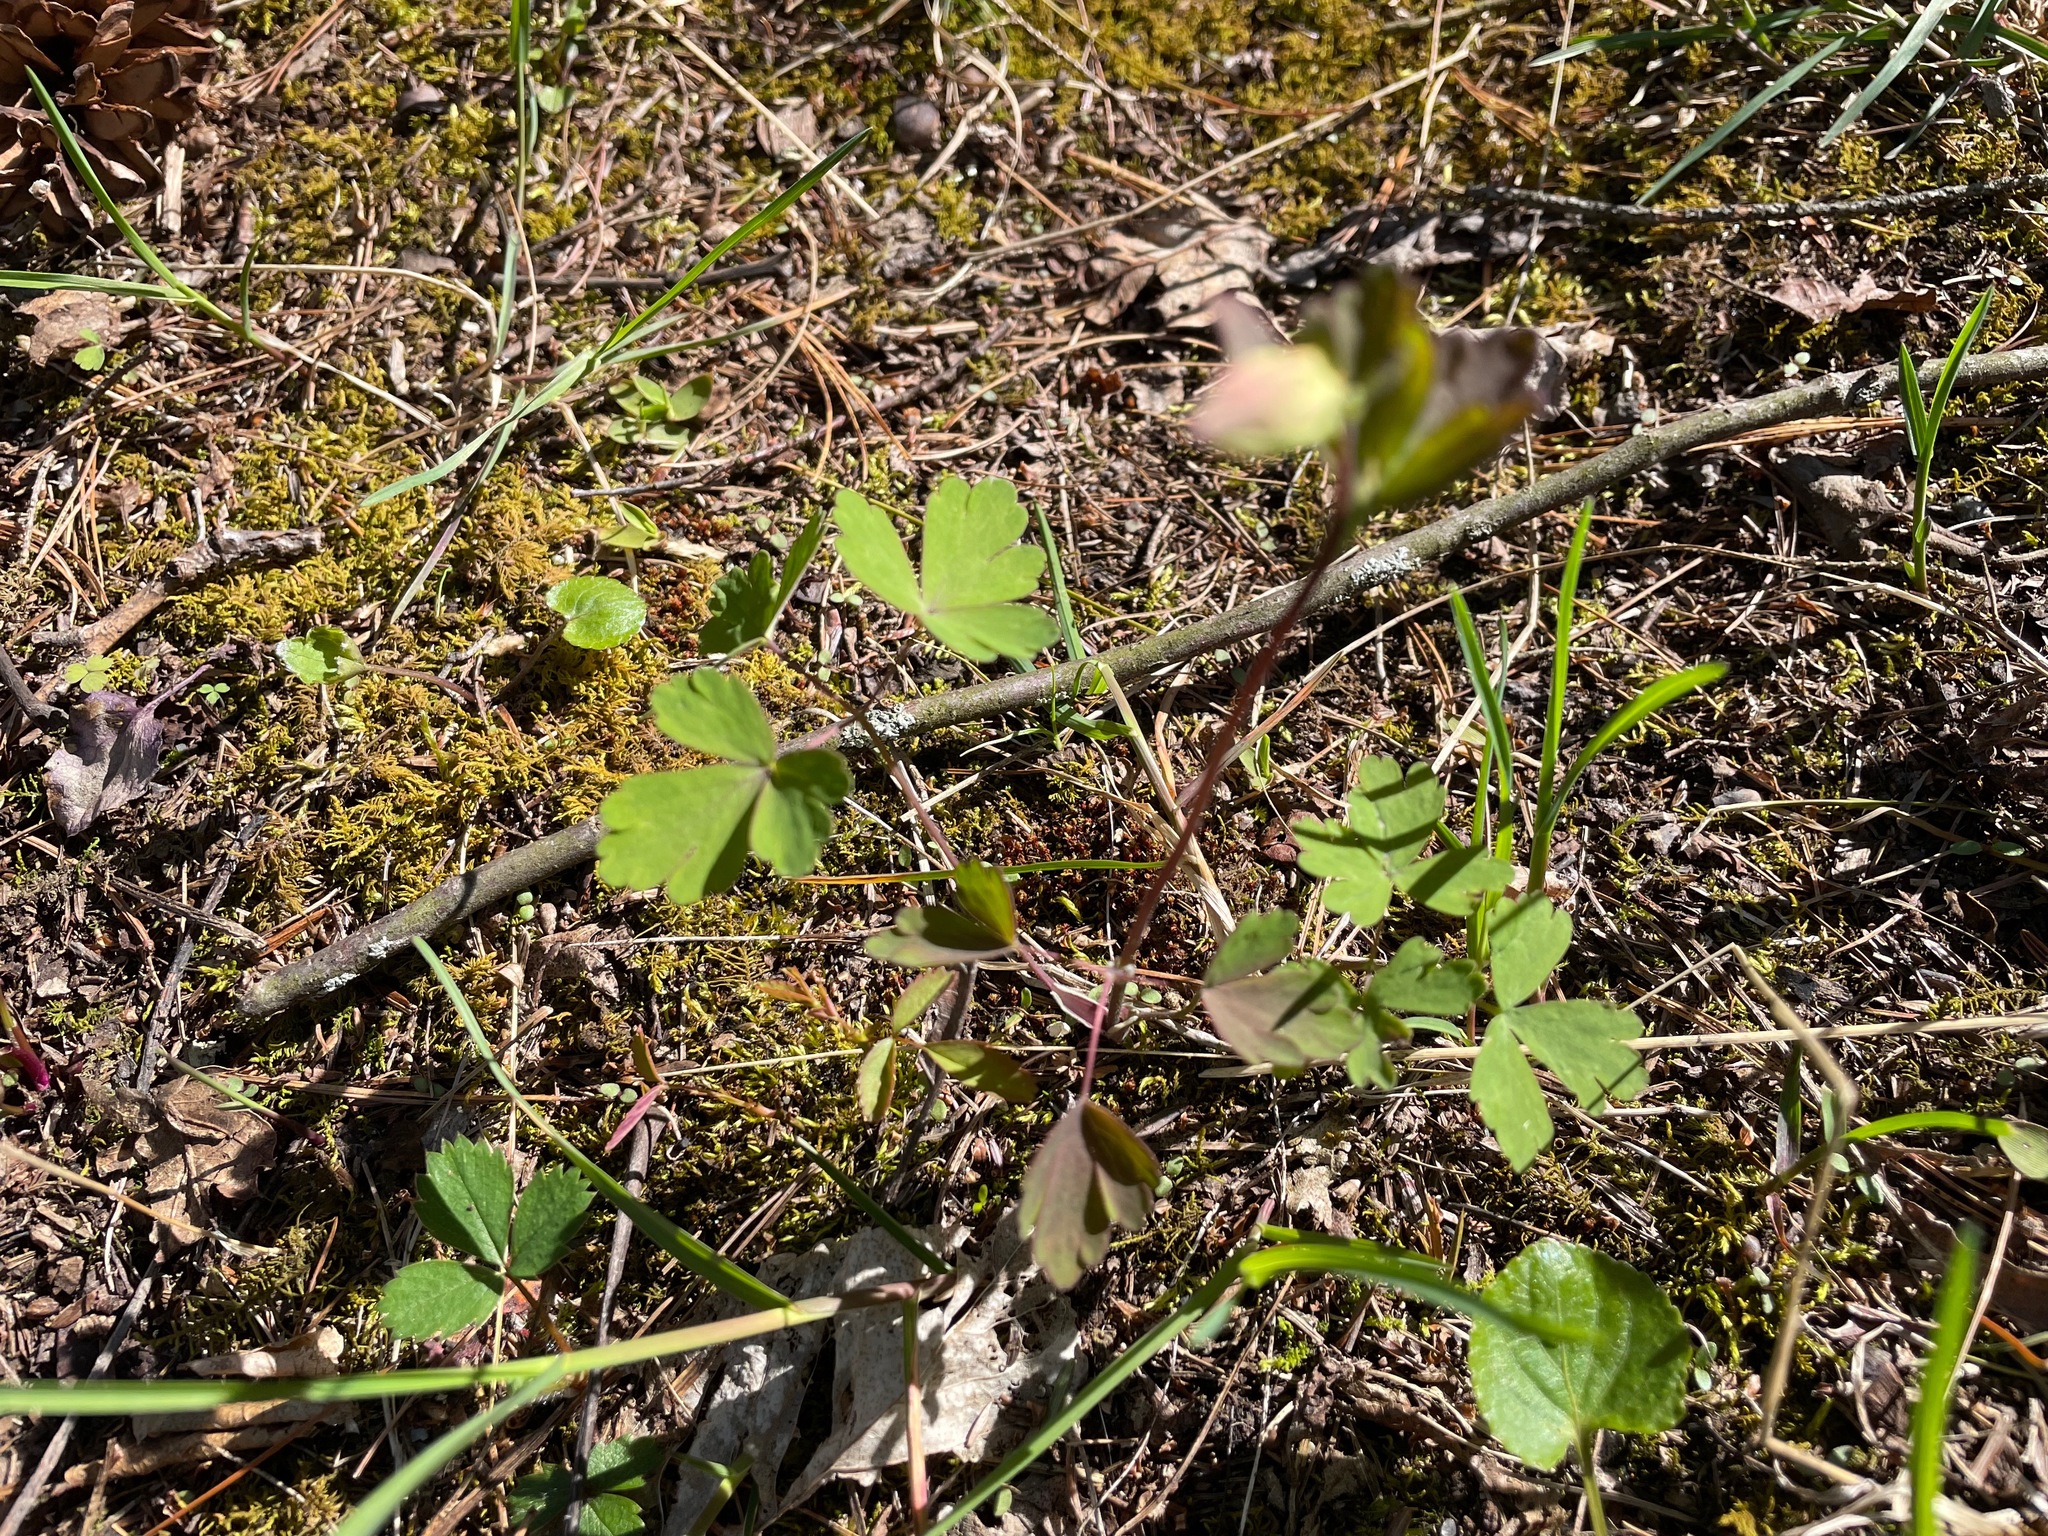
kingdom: Plantae
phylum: Tracheophyta
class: Magnoliopsida
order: Ranunculales
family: Ranunculaceae
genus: Aquilegia
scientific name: Aquilegia canadensis
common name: American columbine
